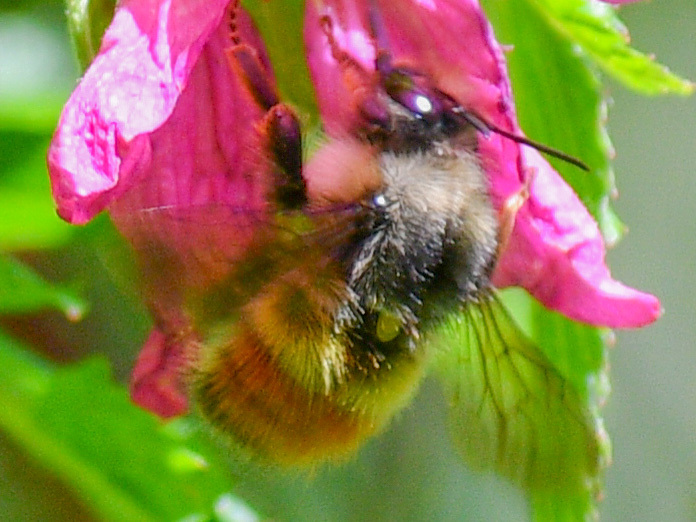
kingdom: Animalia
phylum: Arthropoda
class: Insecta
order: Hymenoptera
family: Apidae
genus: Bombus
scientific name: Bombus flavifrons
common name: Yellow head bumble bee
